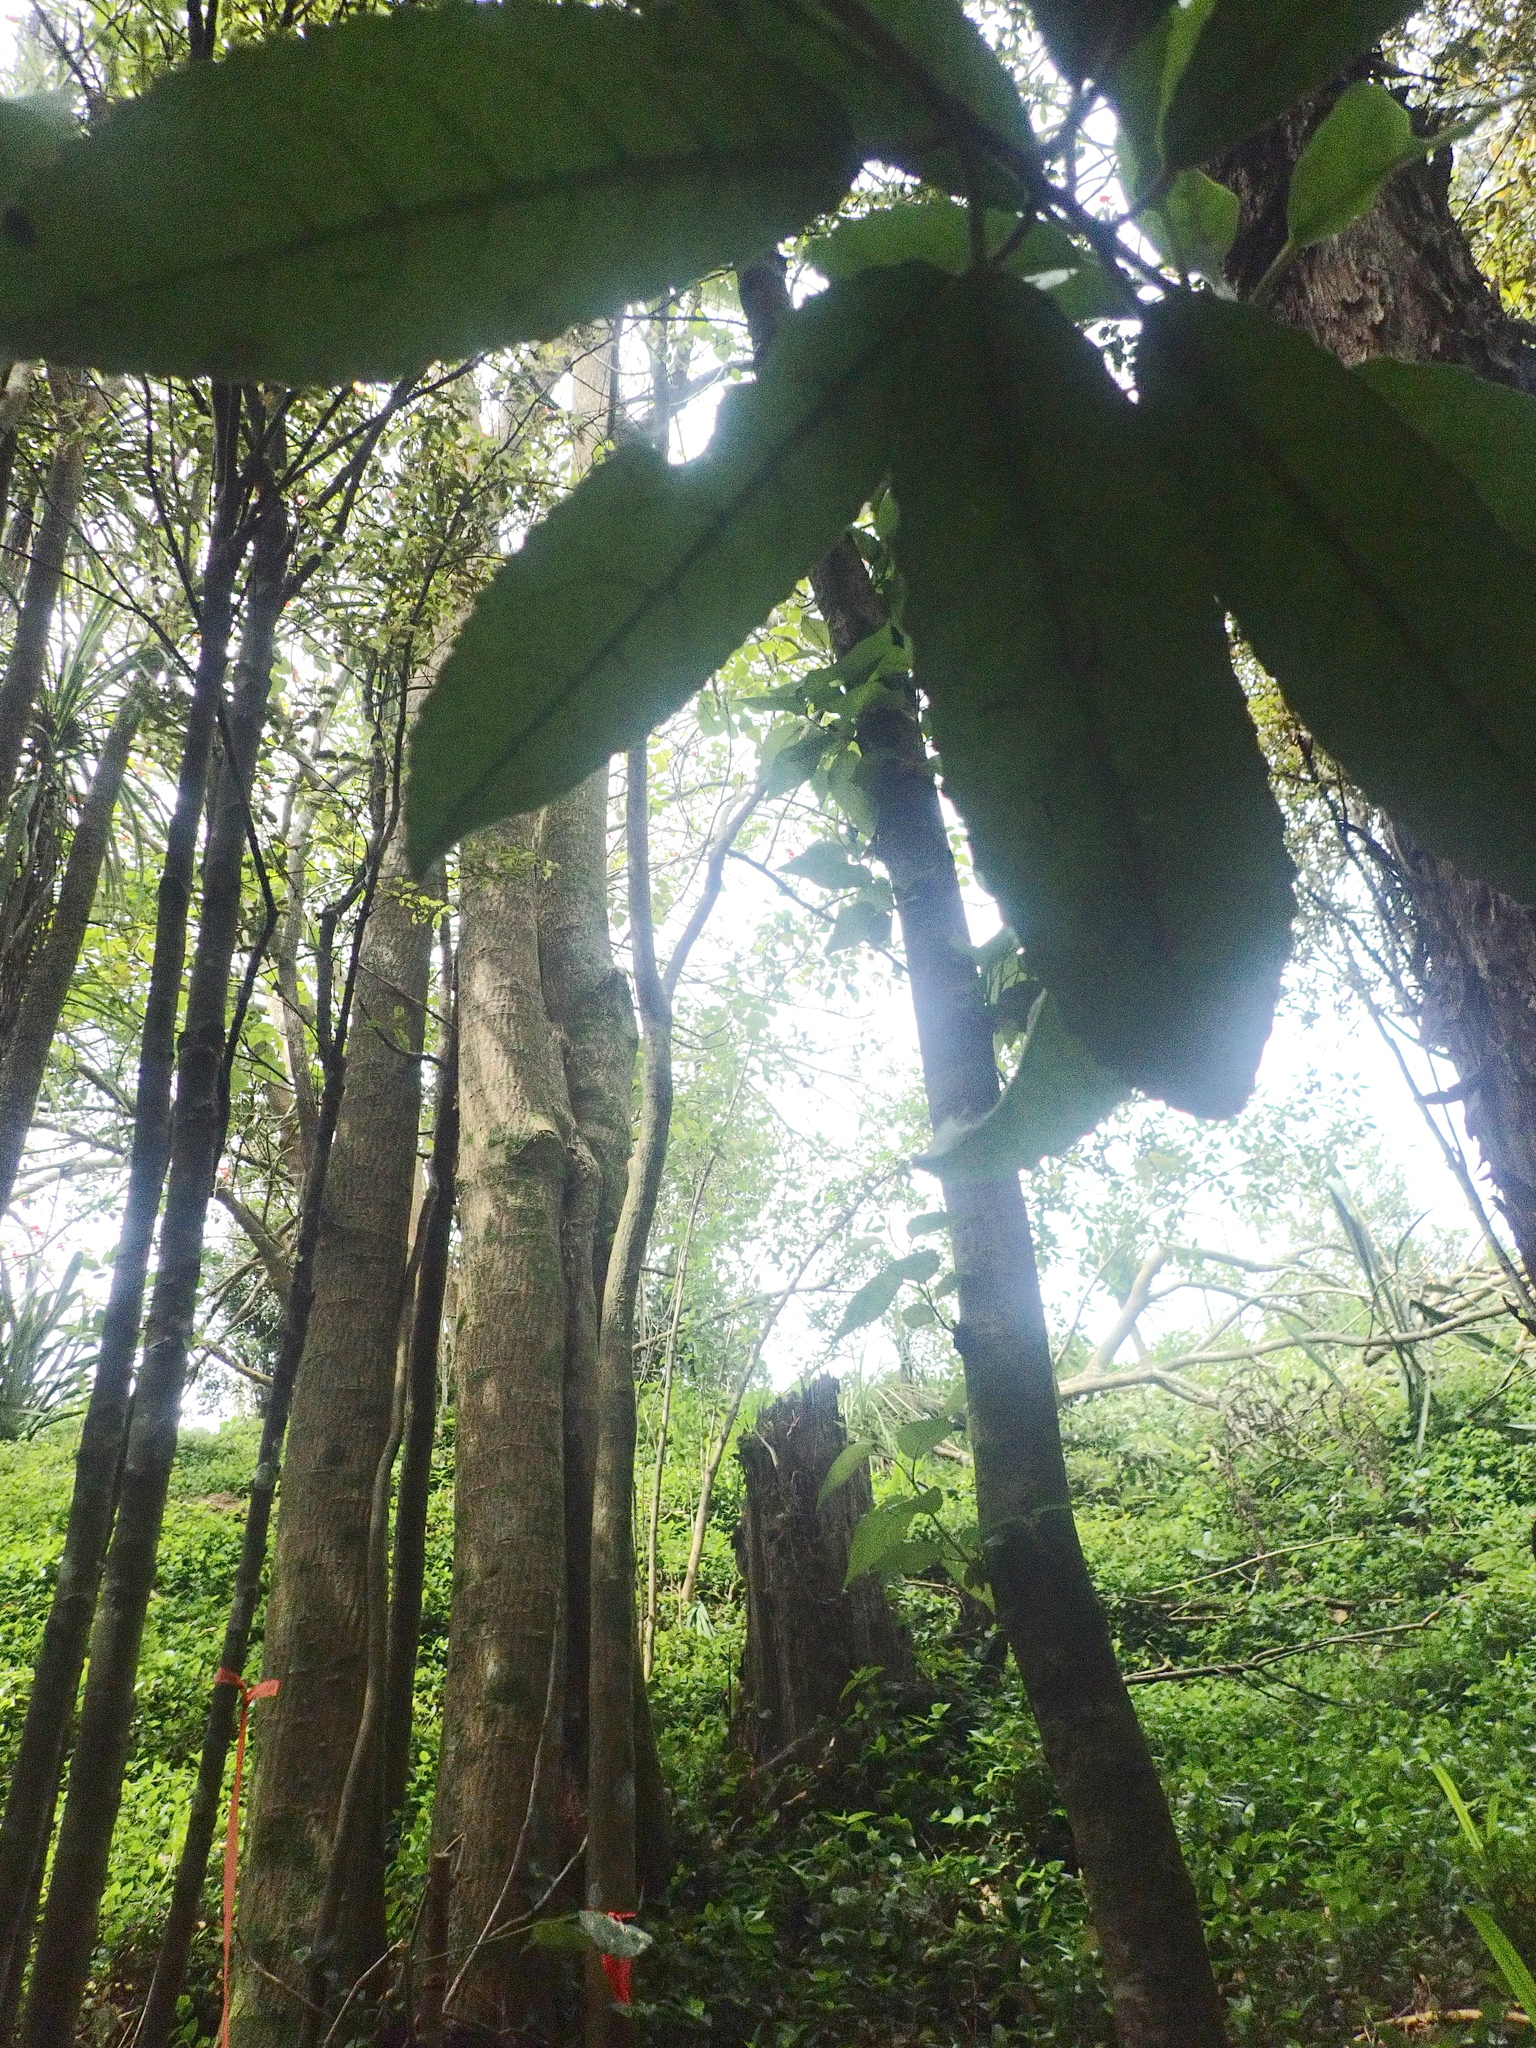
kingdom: Plantae
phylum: Tracheophyta
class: Liliopsida
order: Commelinales
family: Commelinaceae
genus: Tradescantia
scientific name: Tradescantia fluminensis
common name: Wandering-jew
